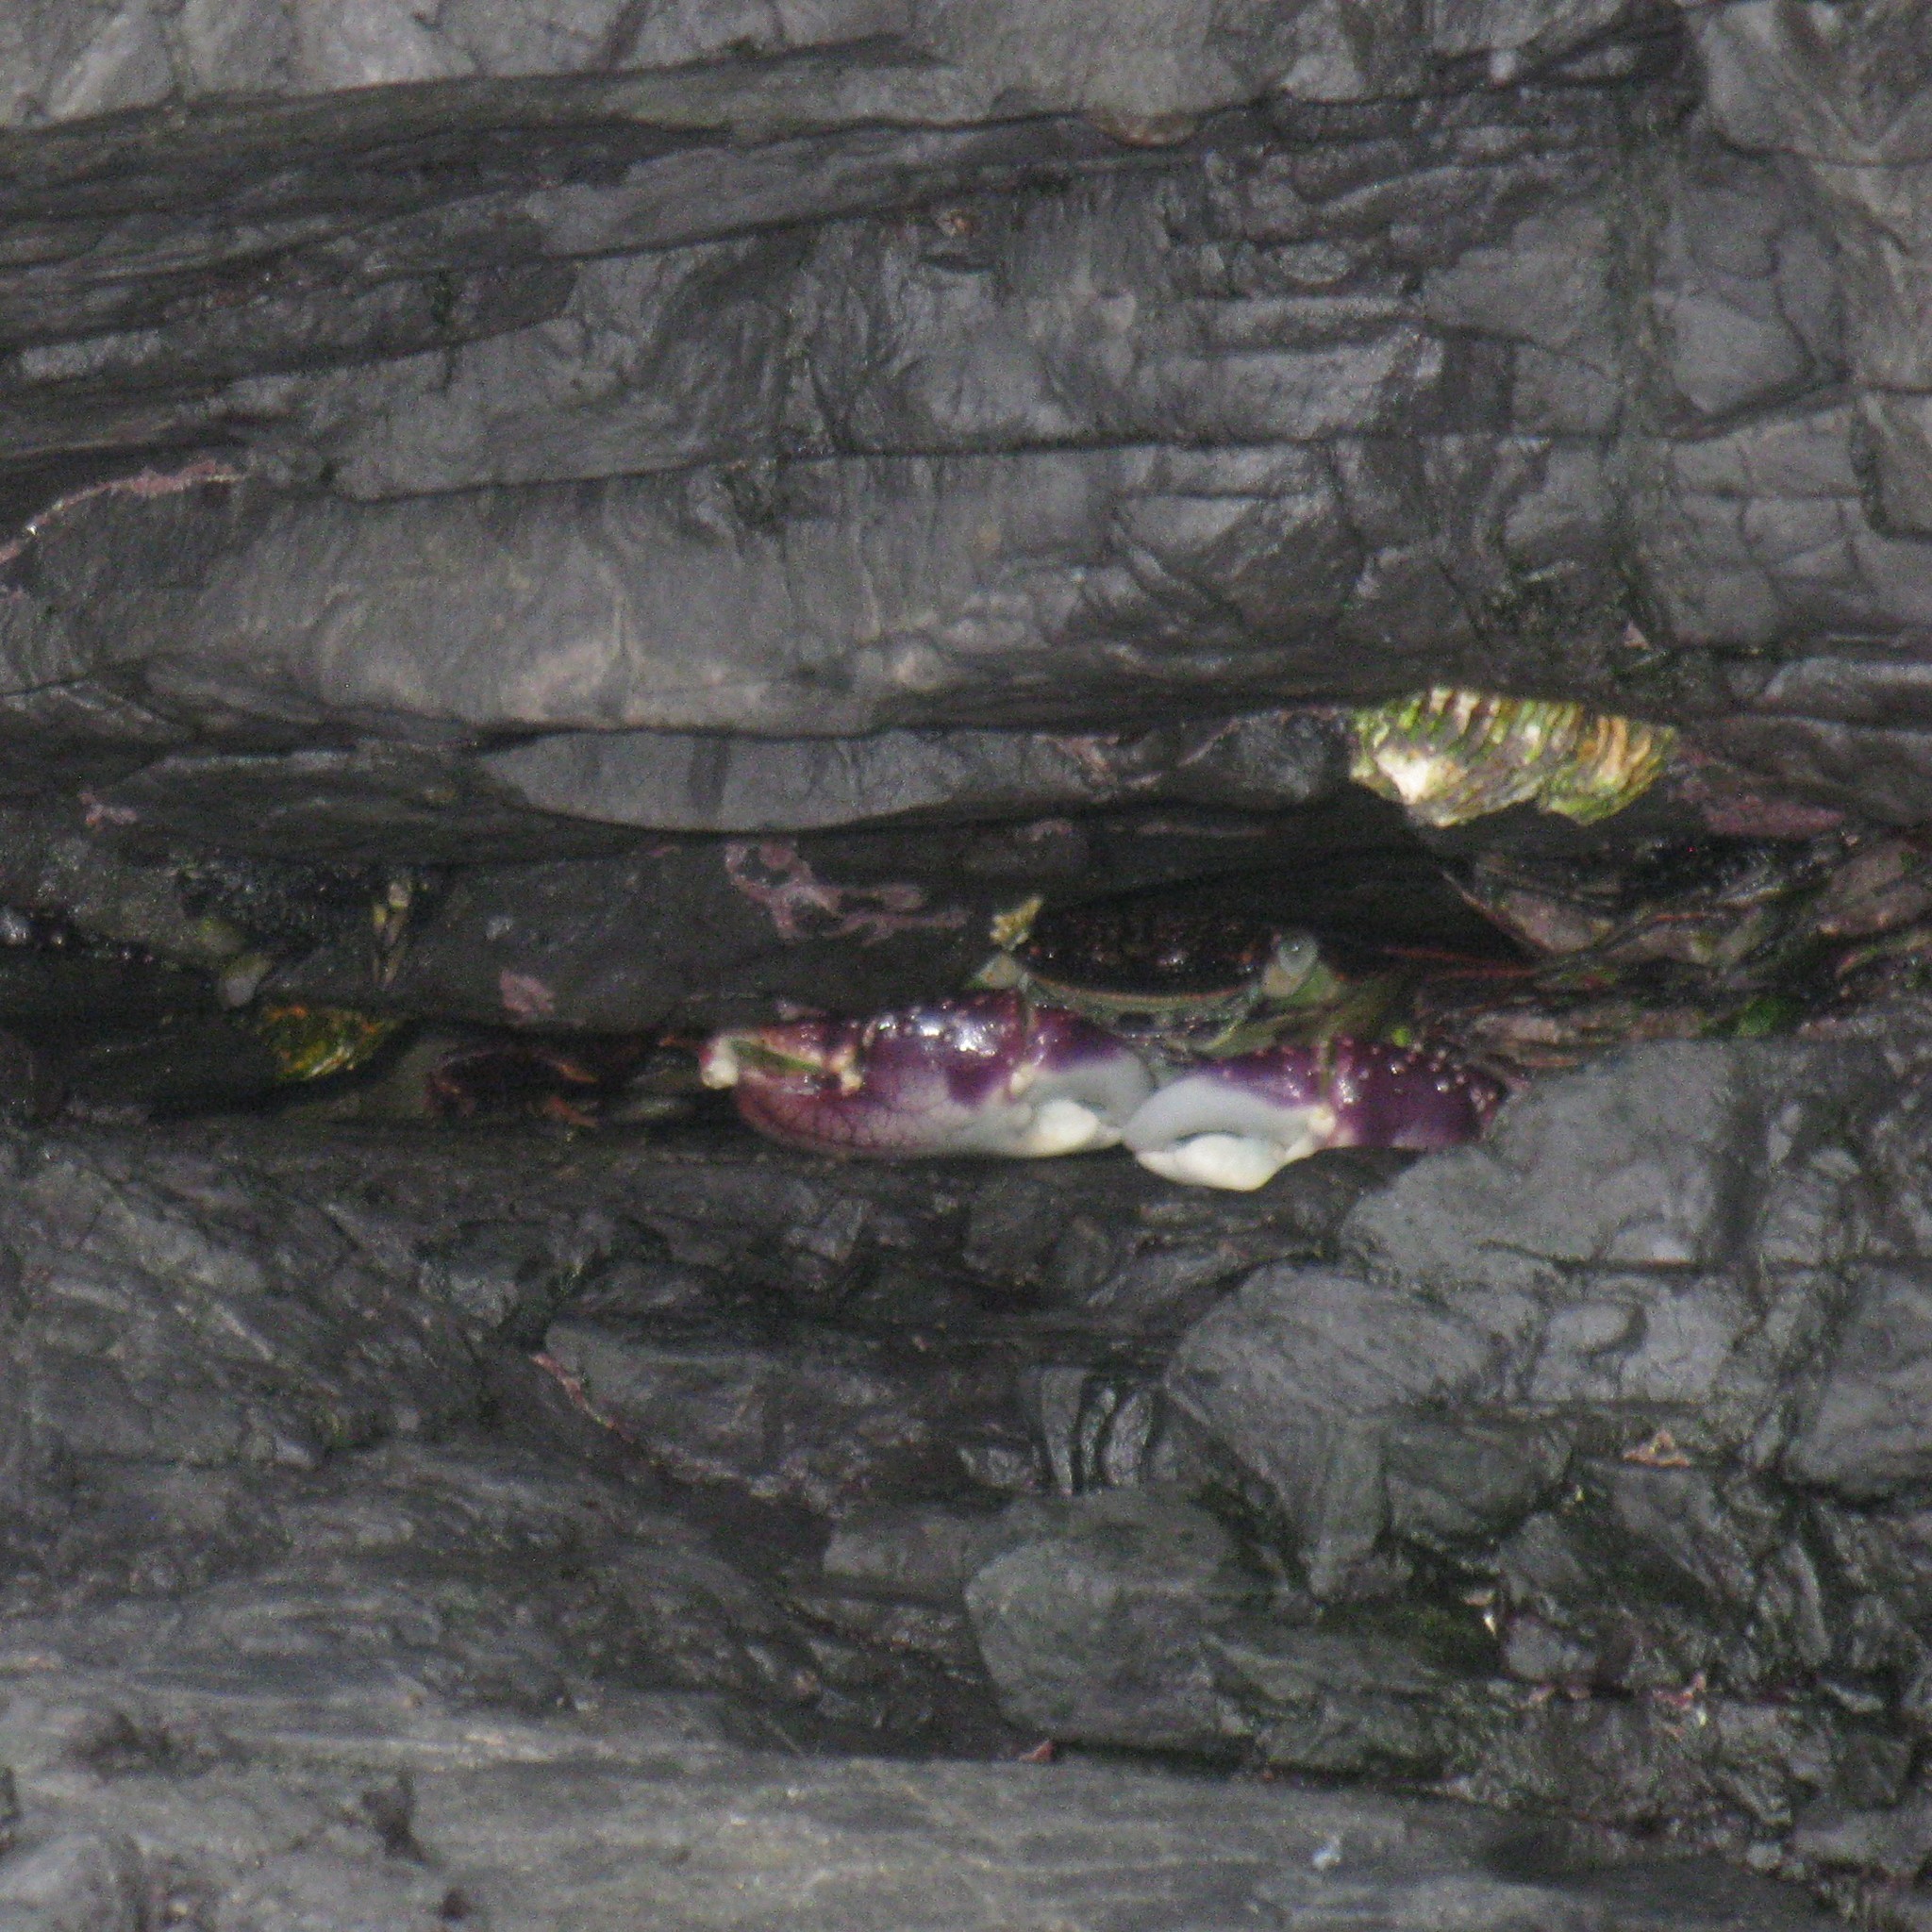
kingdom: Animalia
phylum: Arthropoda
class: Malacostraca
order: Decapoda
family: Grapsidae
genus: Leptograpsus
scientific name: Leptograpsus variegatus
